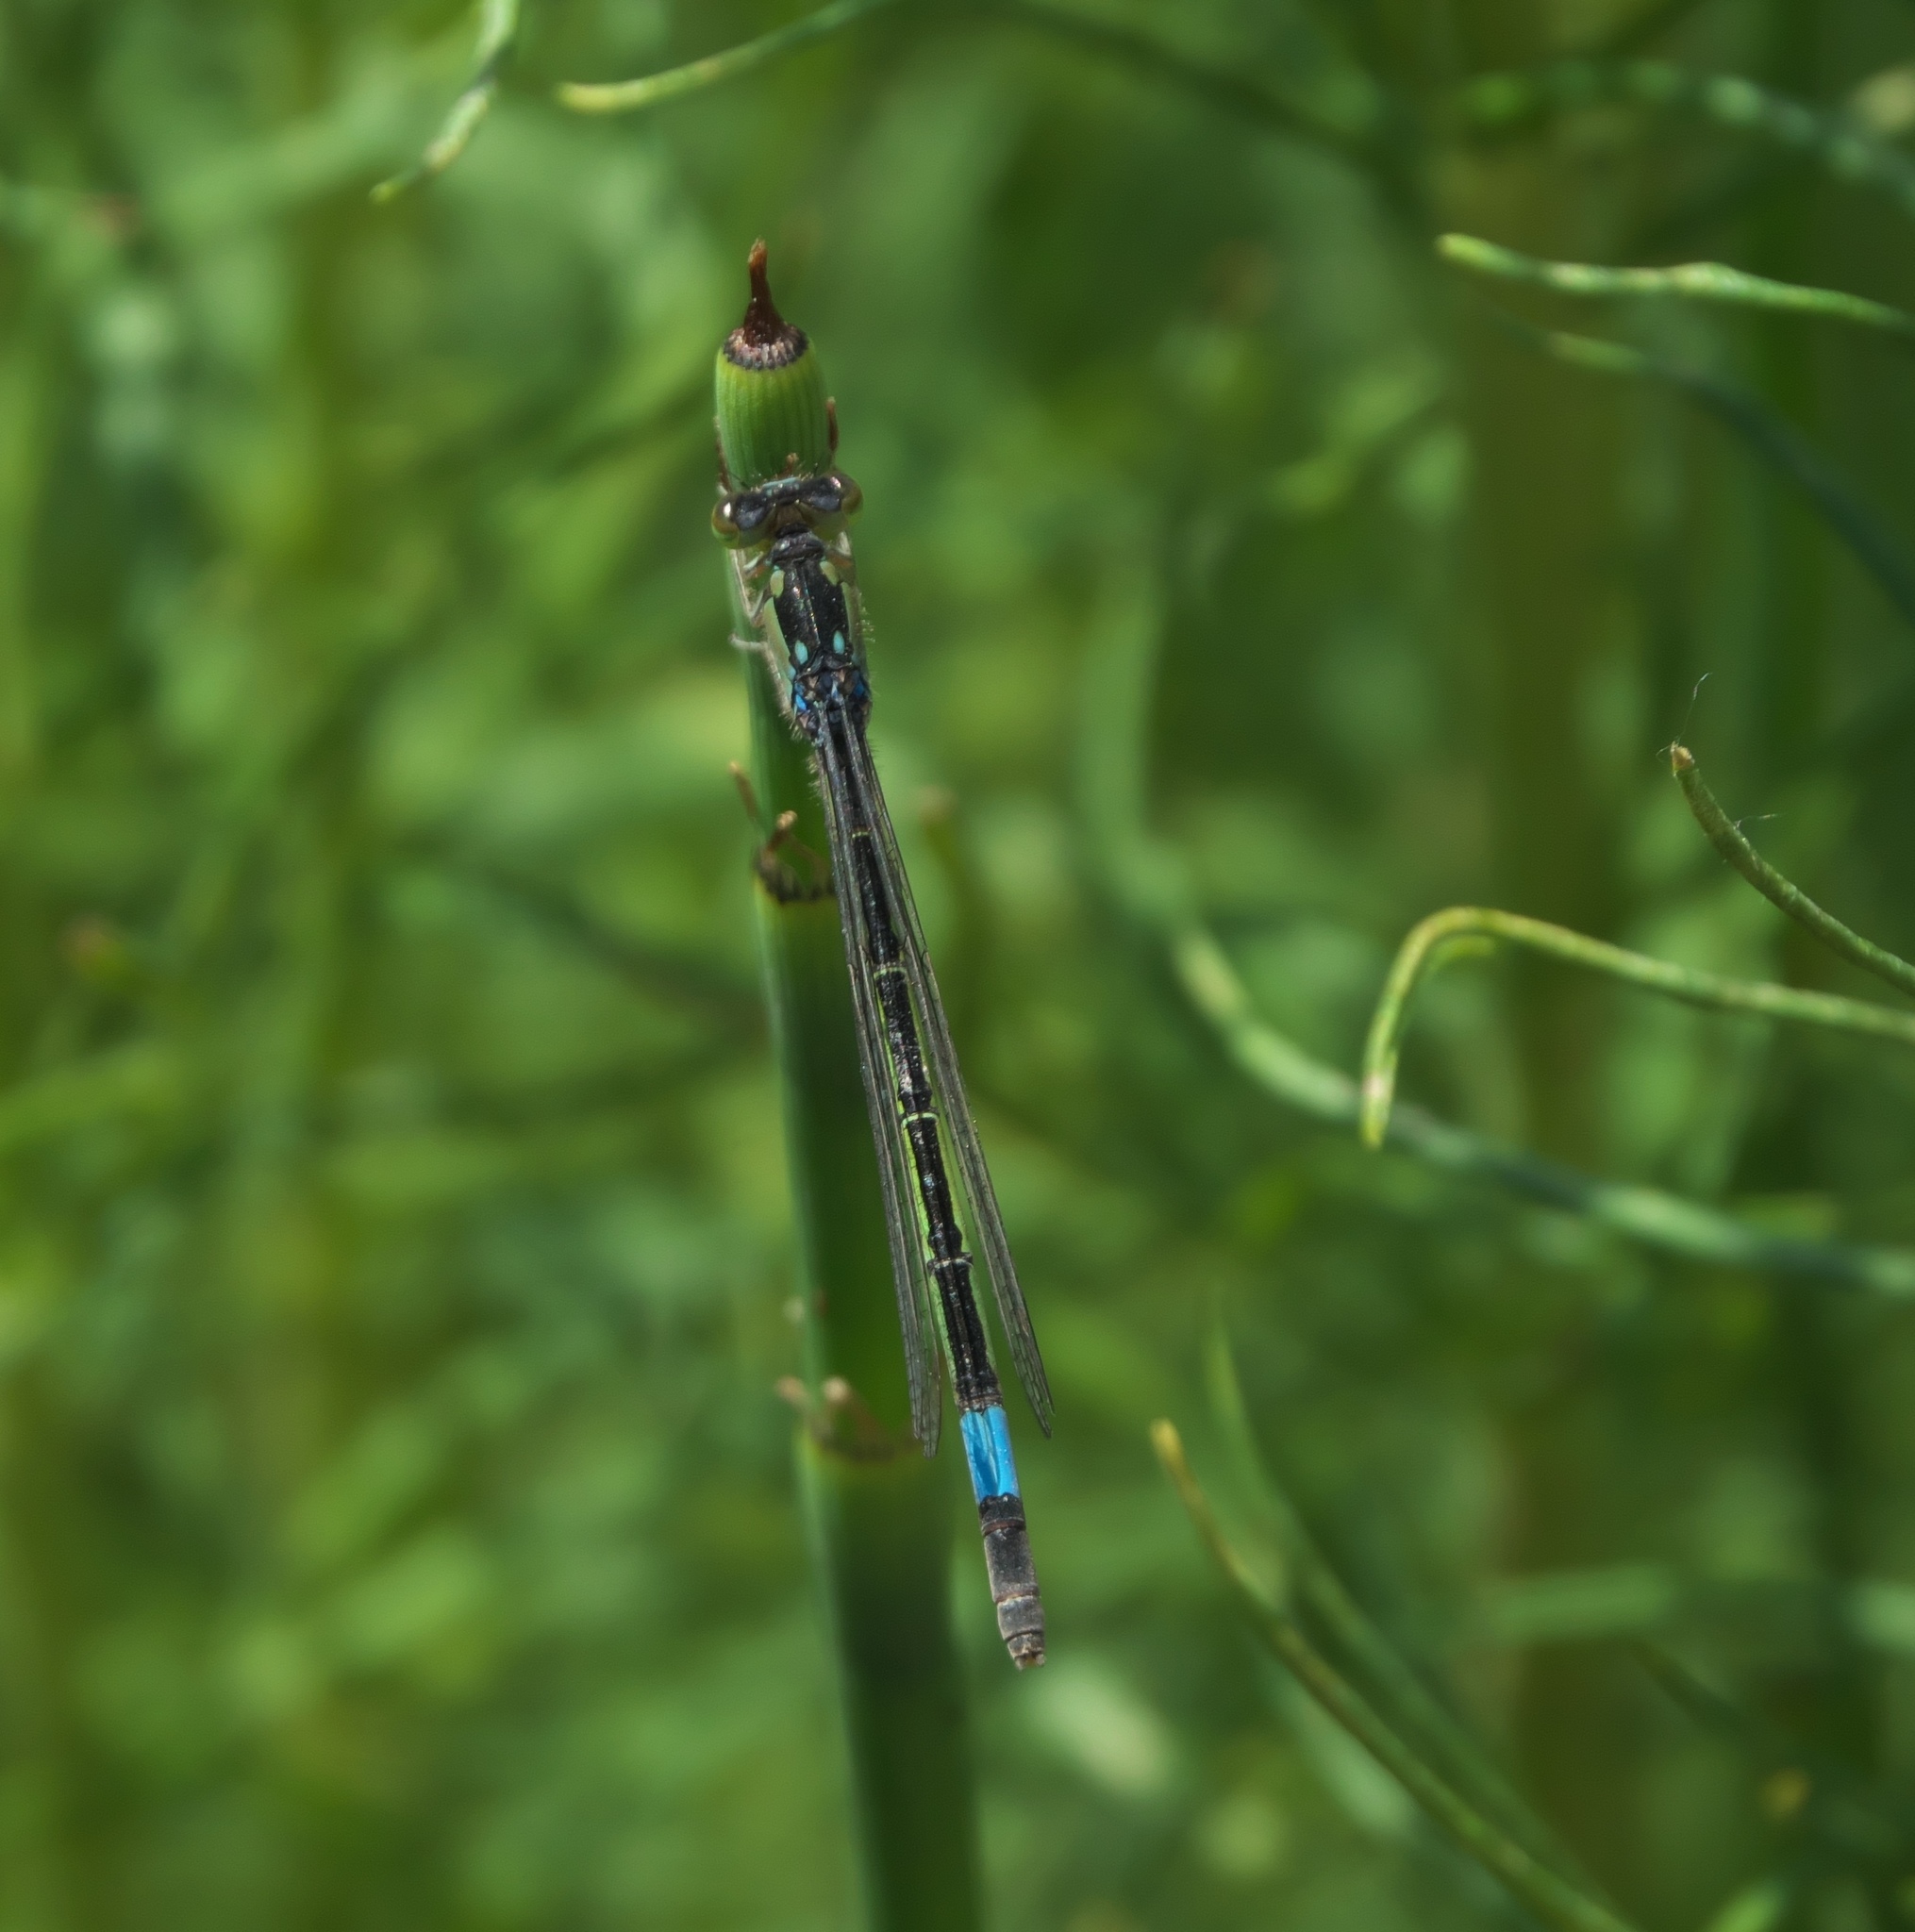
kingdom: Animalia
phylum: Arthropoda
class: Insecta
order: Odonata
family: Coenagrionidae
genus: Hesperagrion
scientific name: Hesperagrion heterodoxum
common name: Painted damsel
